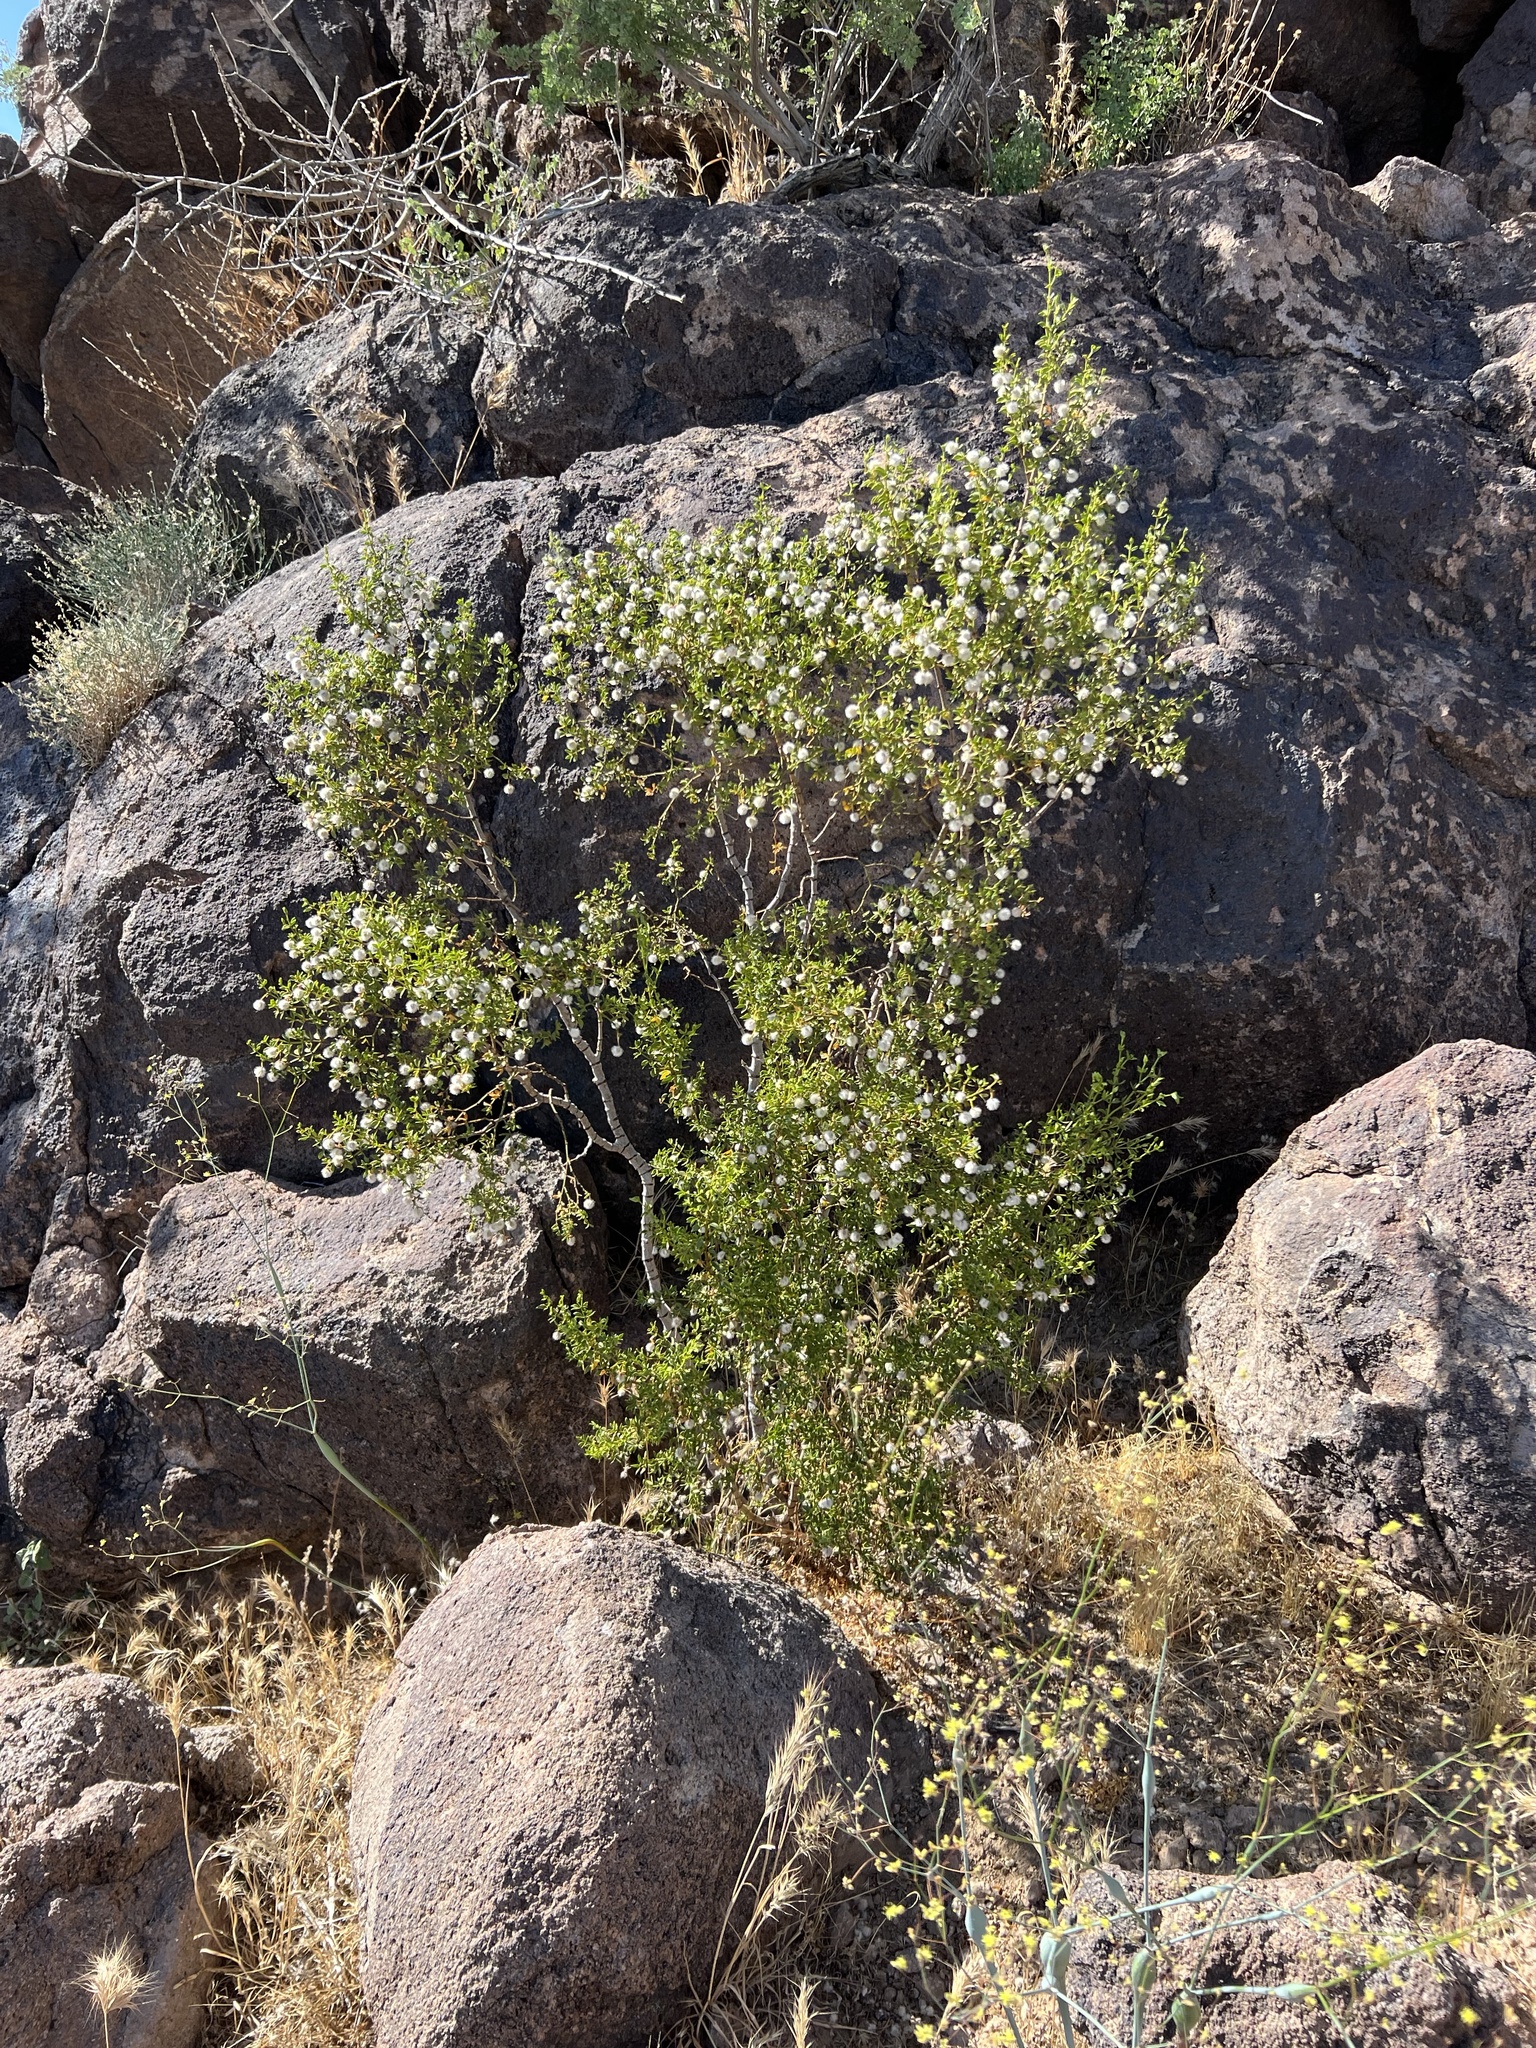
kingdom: Plantae
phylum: Tracheophyta
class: Magnoliopsida
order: Zygophyllales
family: Zygophyllaceae
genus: Larrea
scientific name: Larrea tridentata
